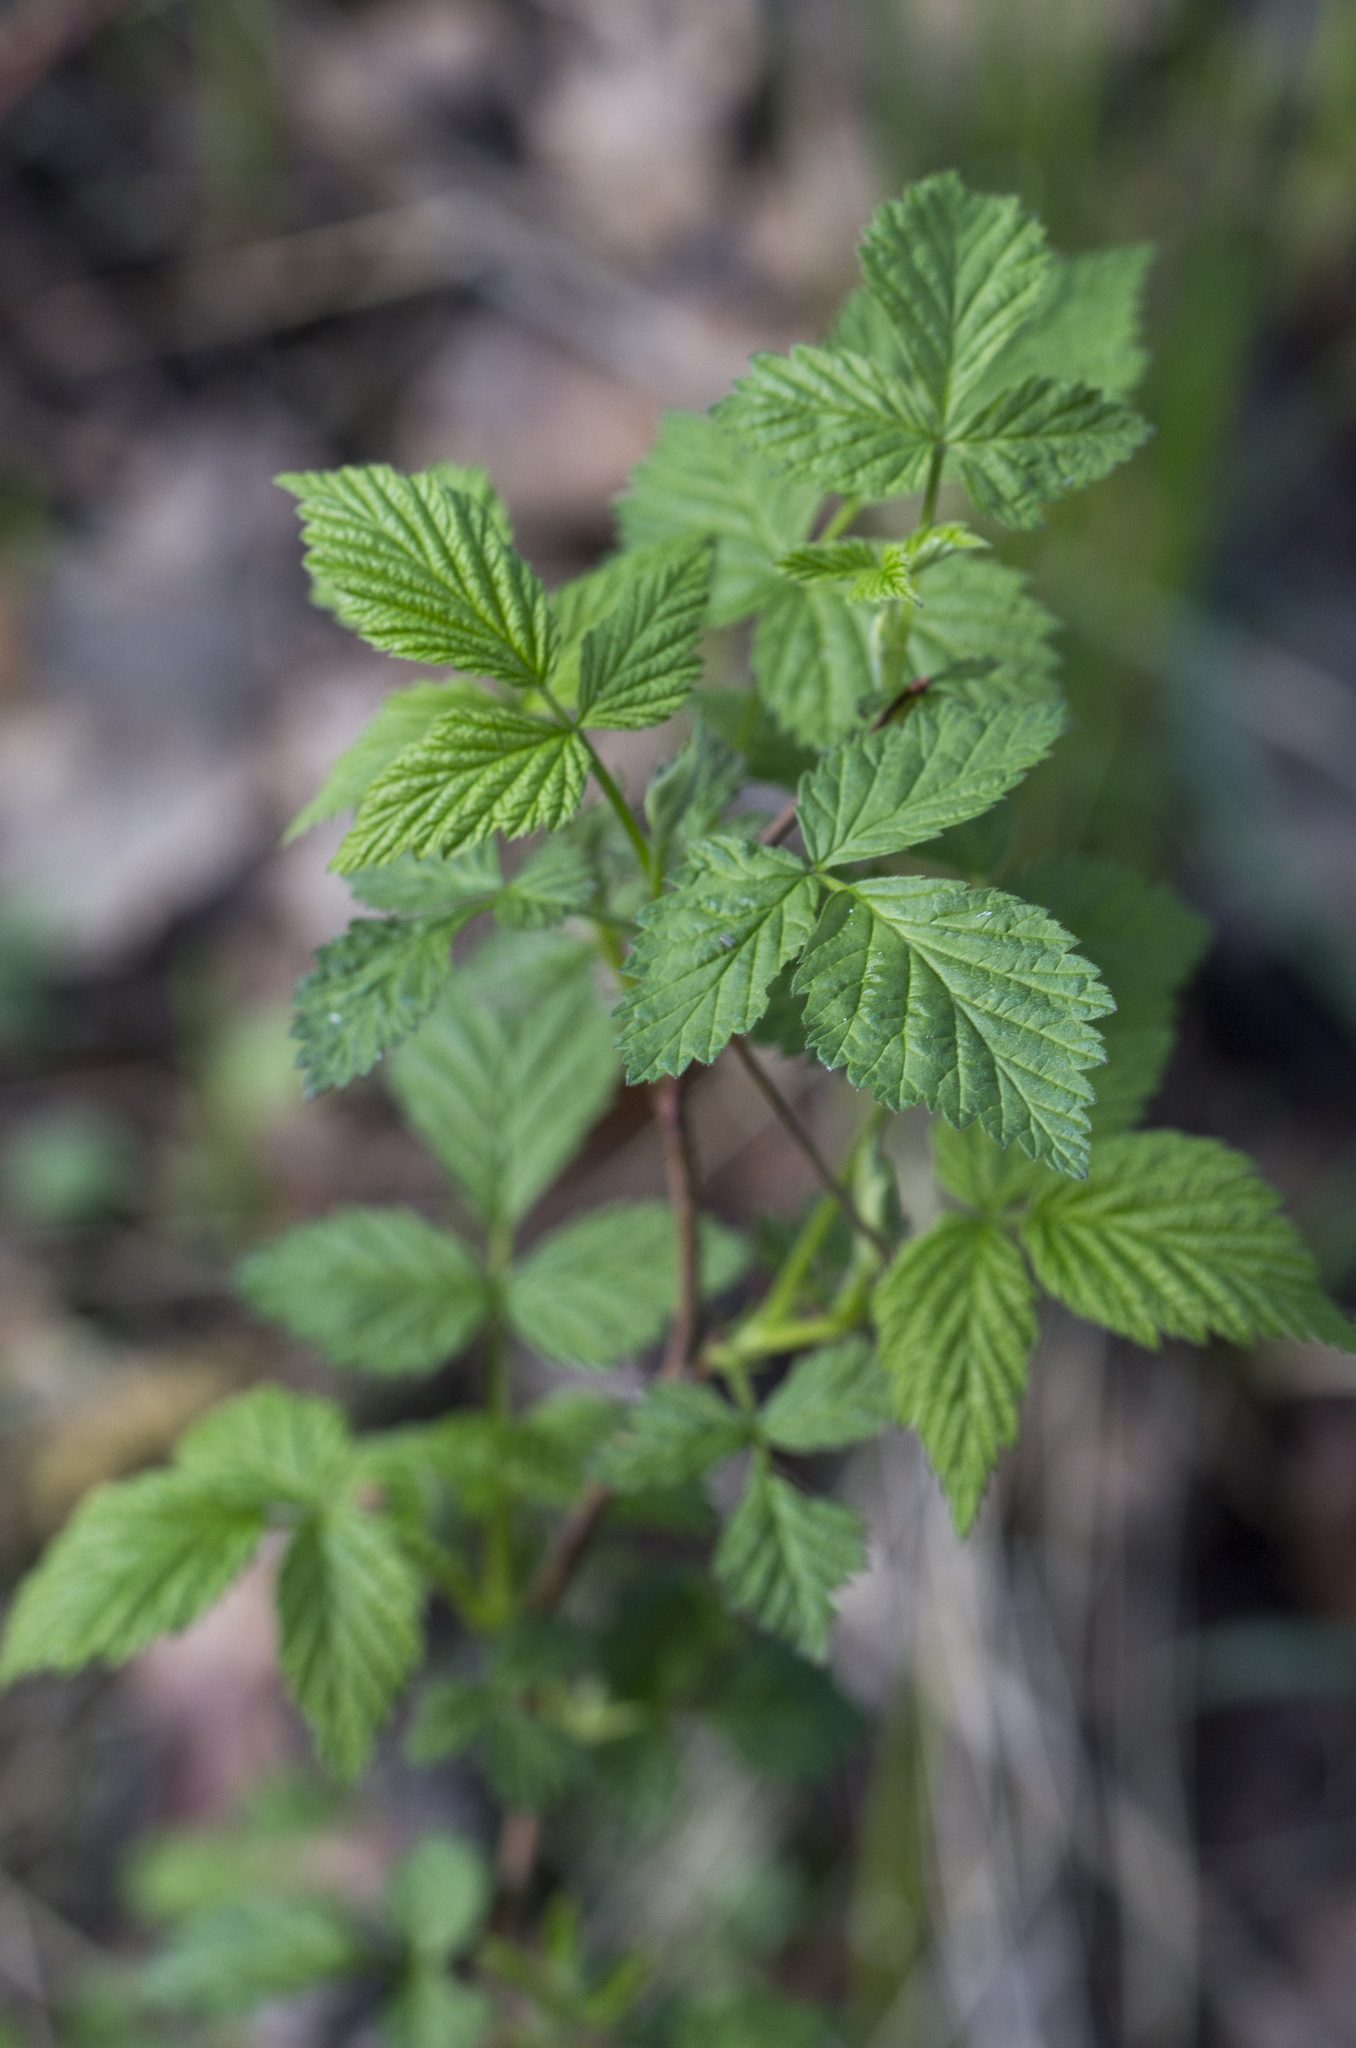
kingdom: Plantae
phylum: Tracheophyta
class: Magnoliopsida
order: Rosales
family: Rosaceae
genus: Rubus
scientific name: Rubus idaeus
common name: Raspberry
